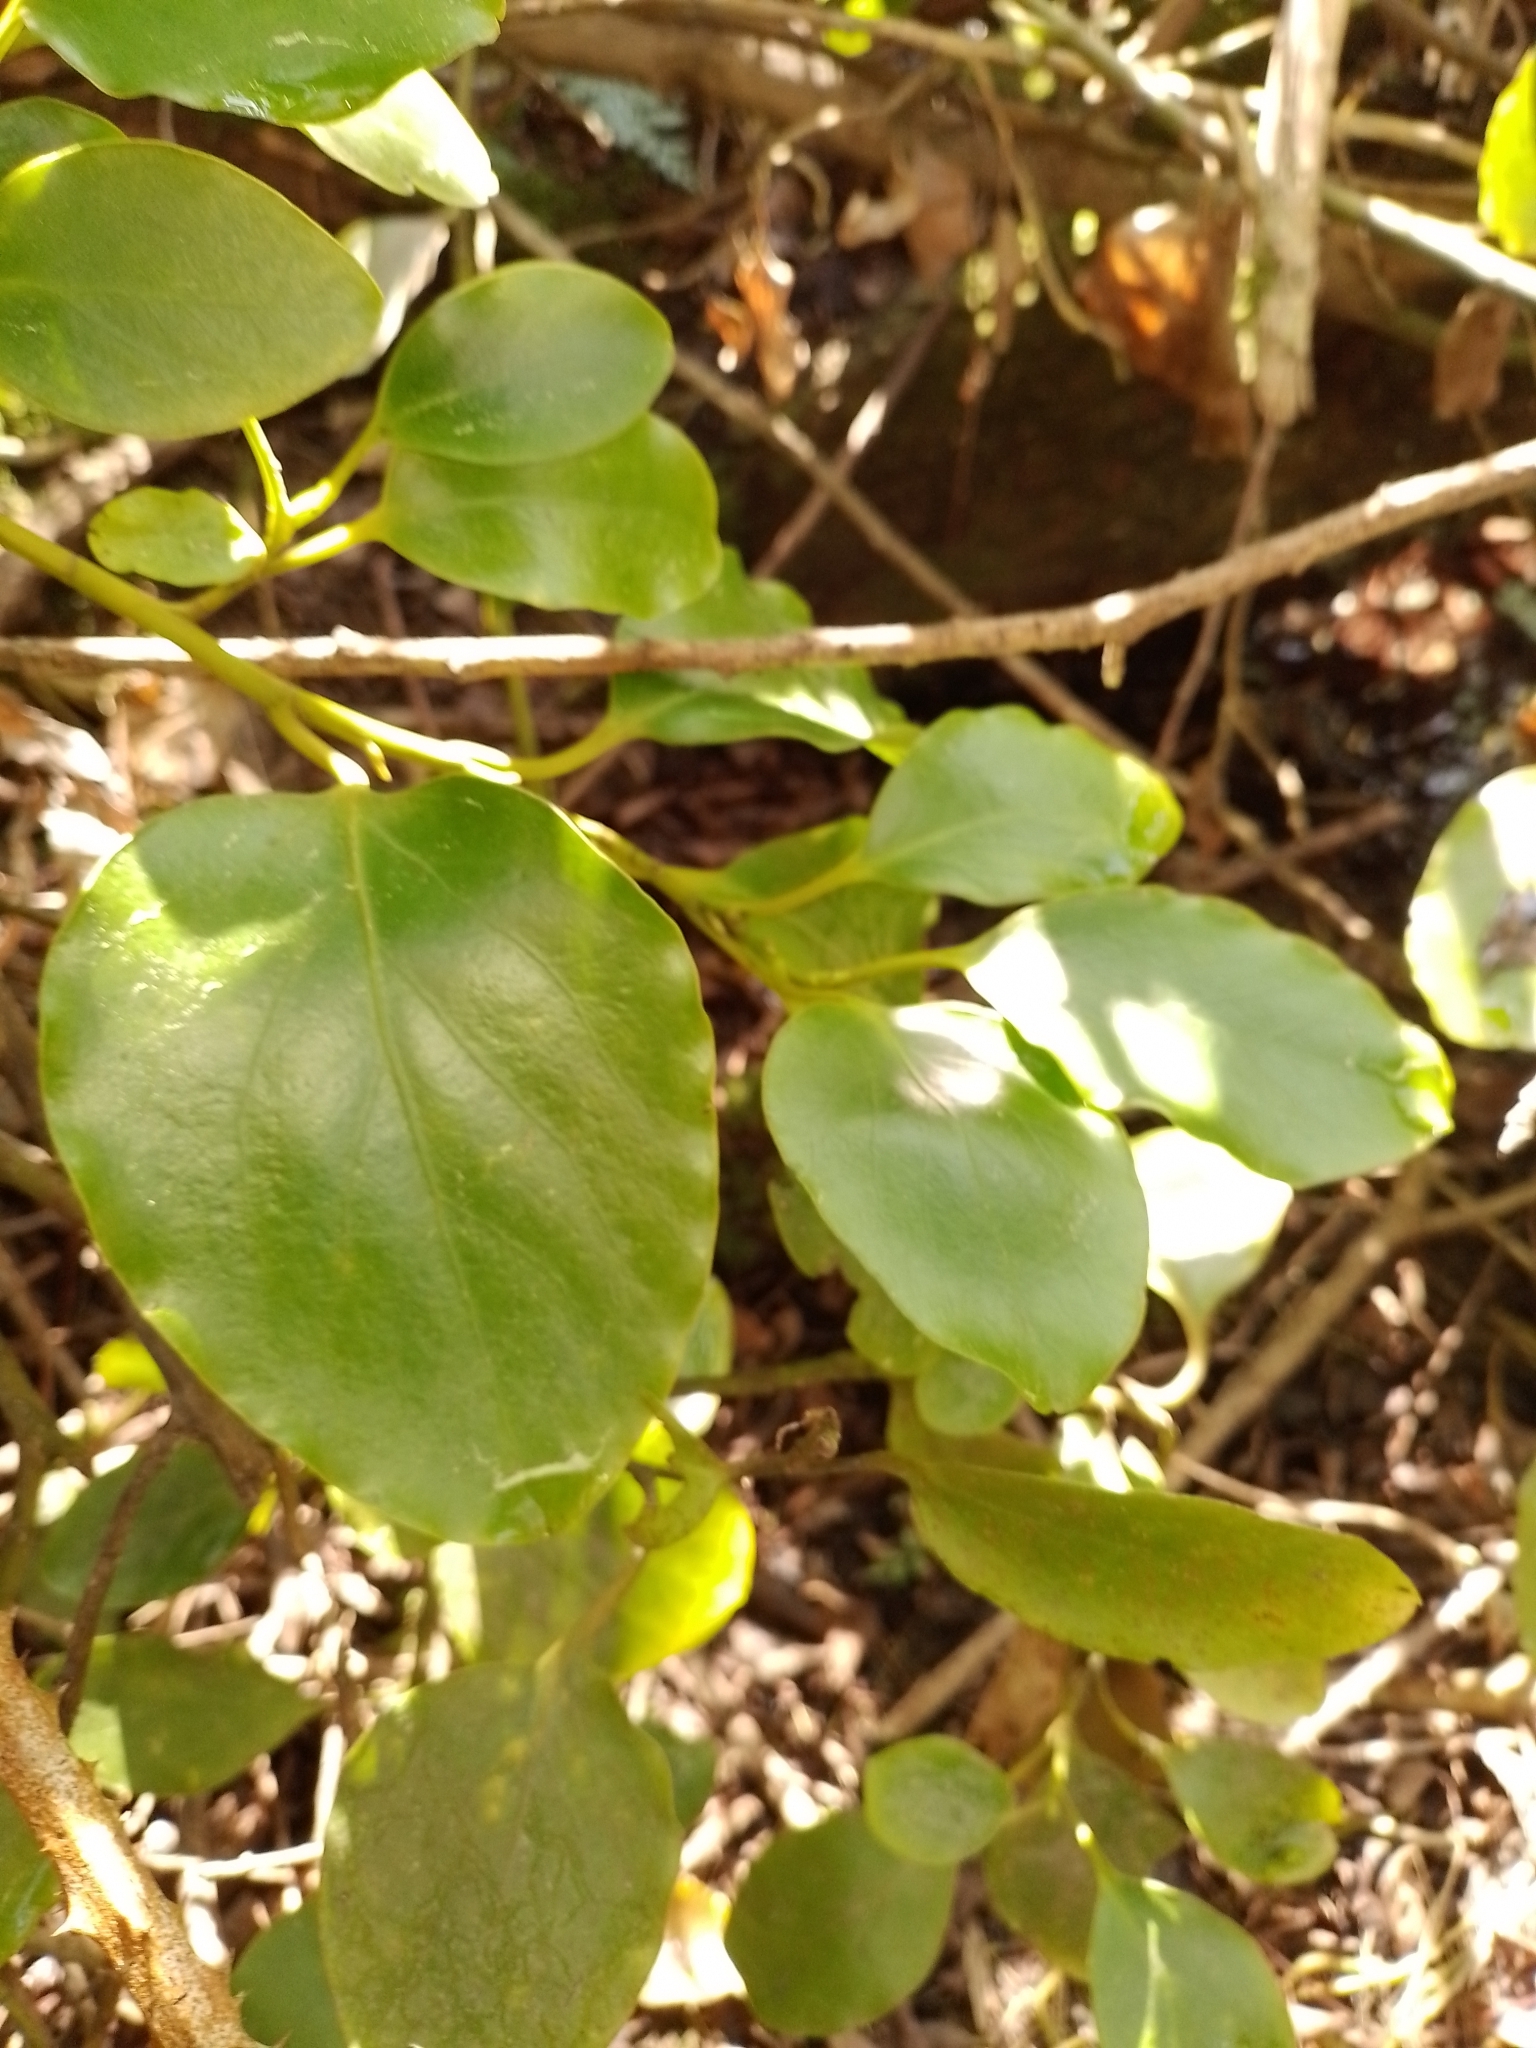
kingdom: Plantae
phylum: Tracheophyta
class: Magnoliopsida
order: Apiales
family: Griseliniaceae
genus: Griselinia
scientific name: Griselinia littoralis
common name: New zealand broadleaf
